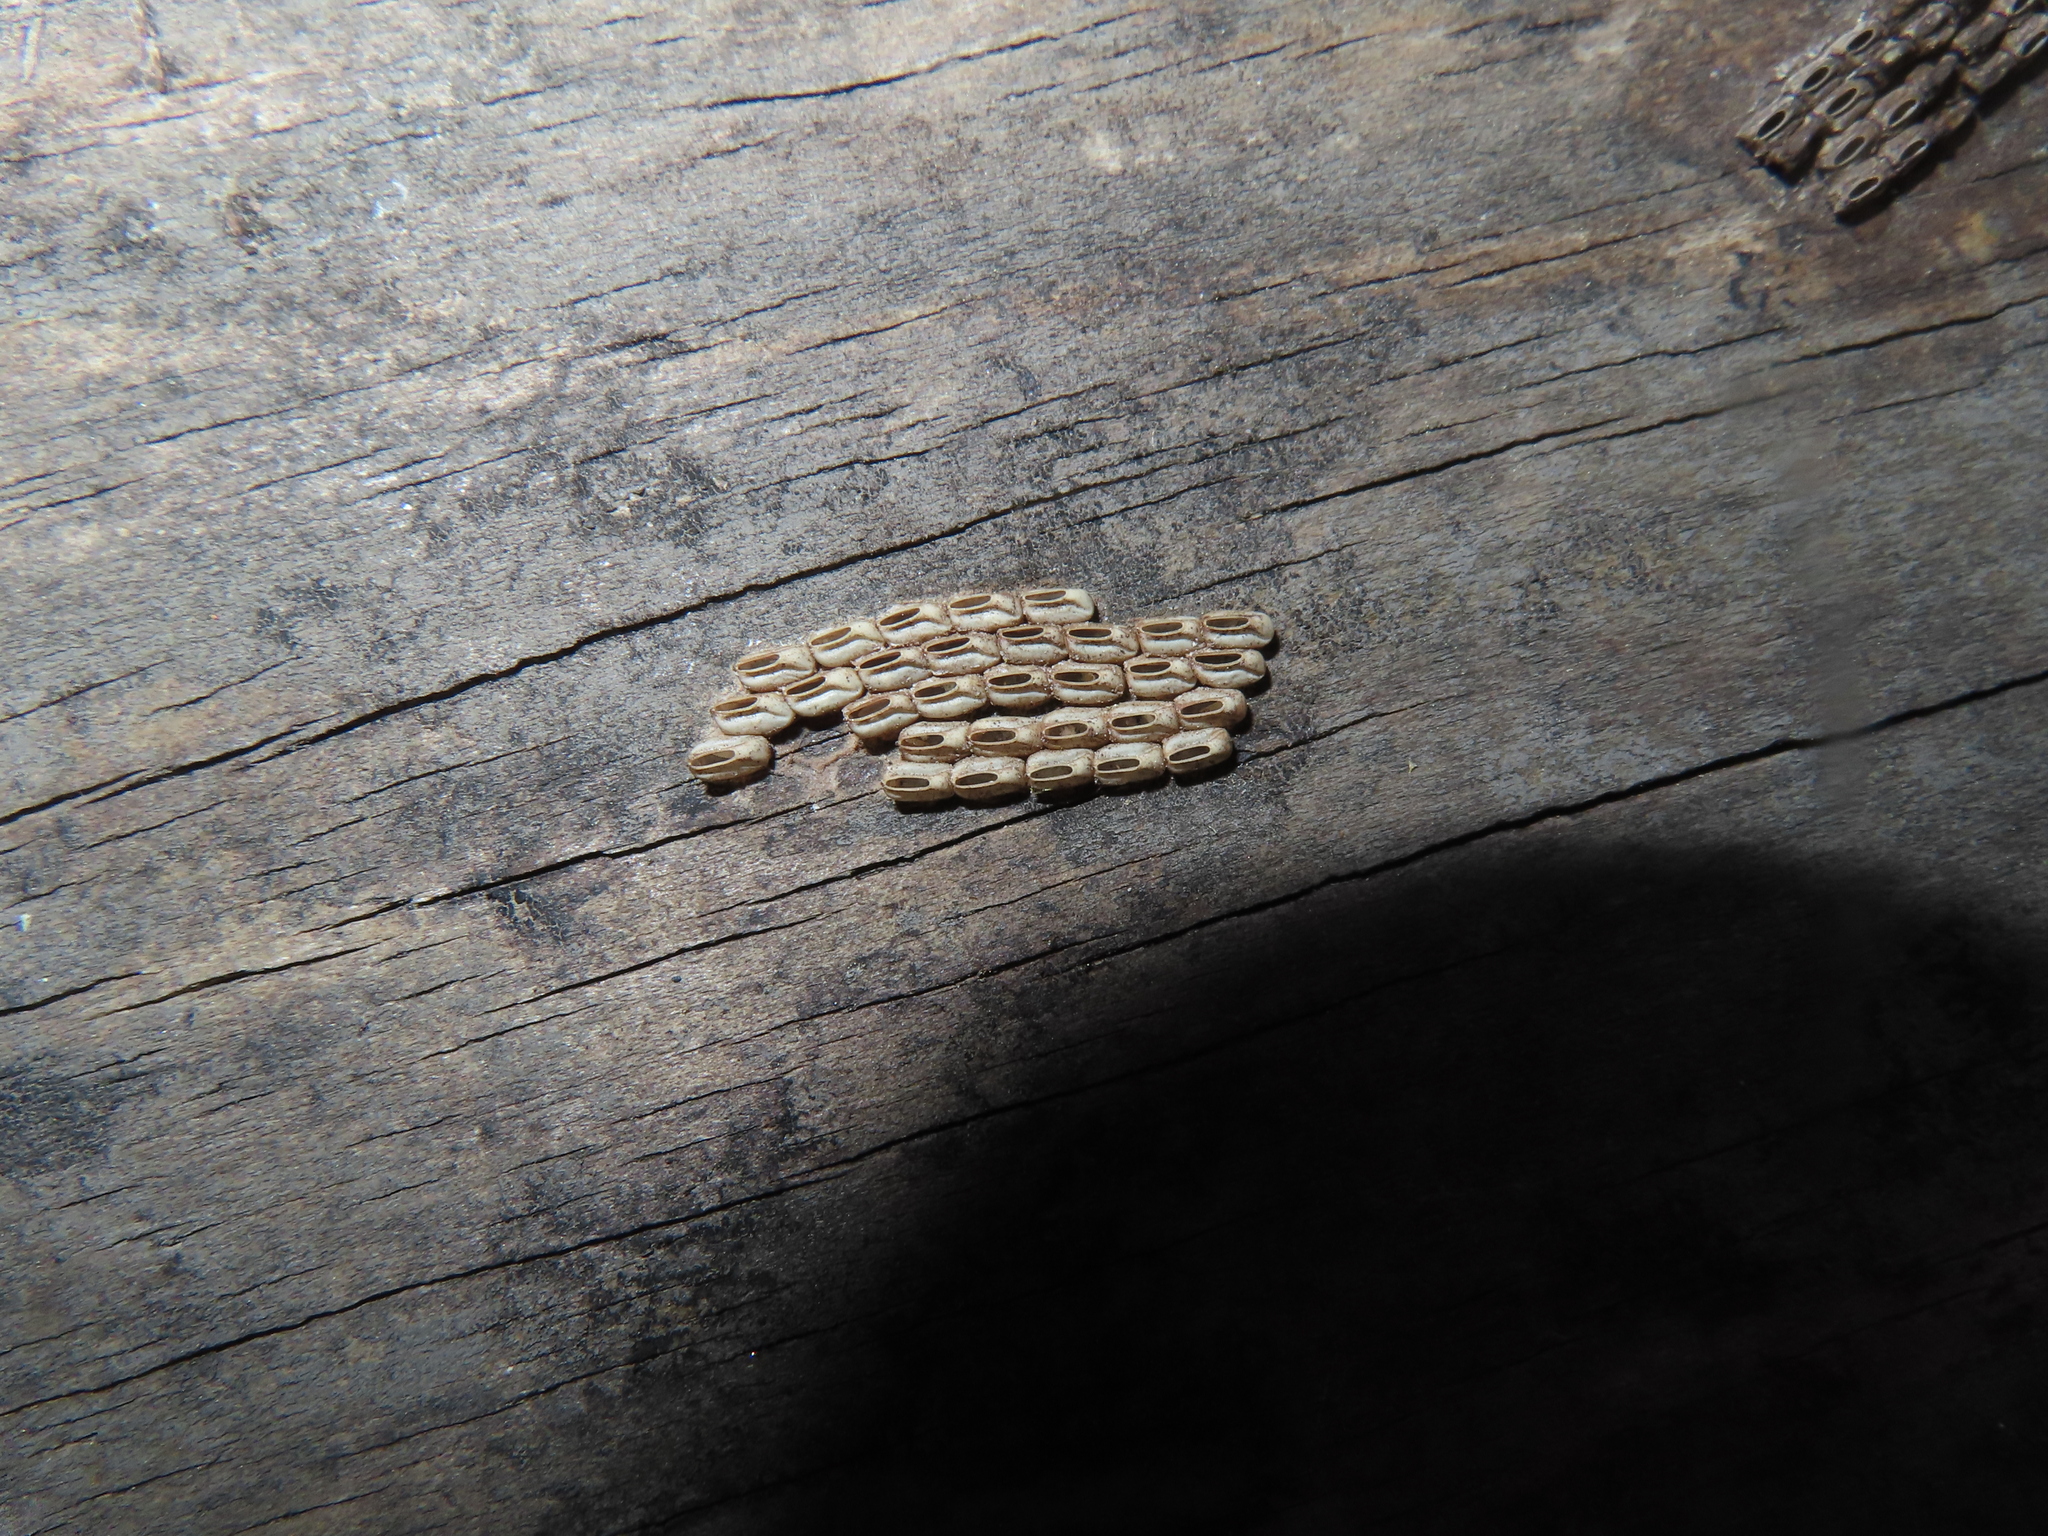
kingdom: Animalia
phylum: Arthropoda
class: Insecta
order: Hemiptera
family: Fulgoridae
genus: Lycorma
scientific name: Lycorma delicatula
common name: Spotted lanternfly
